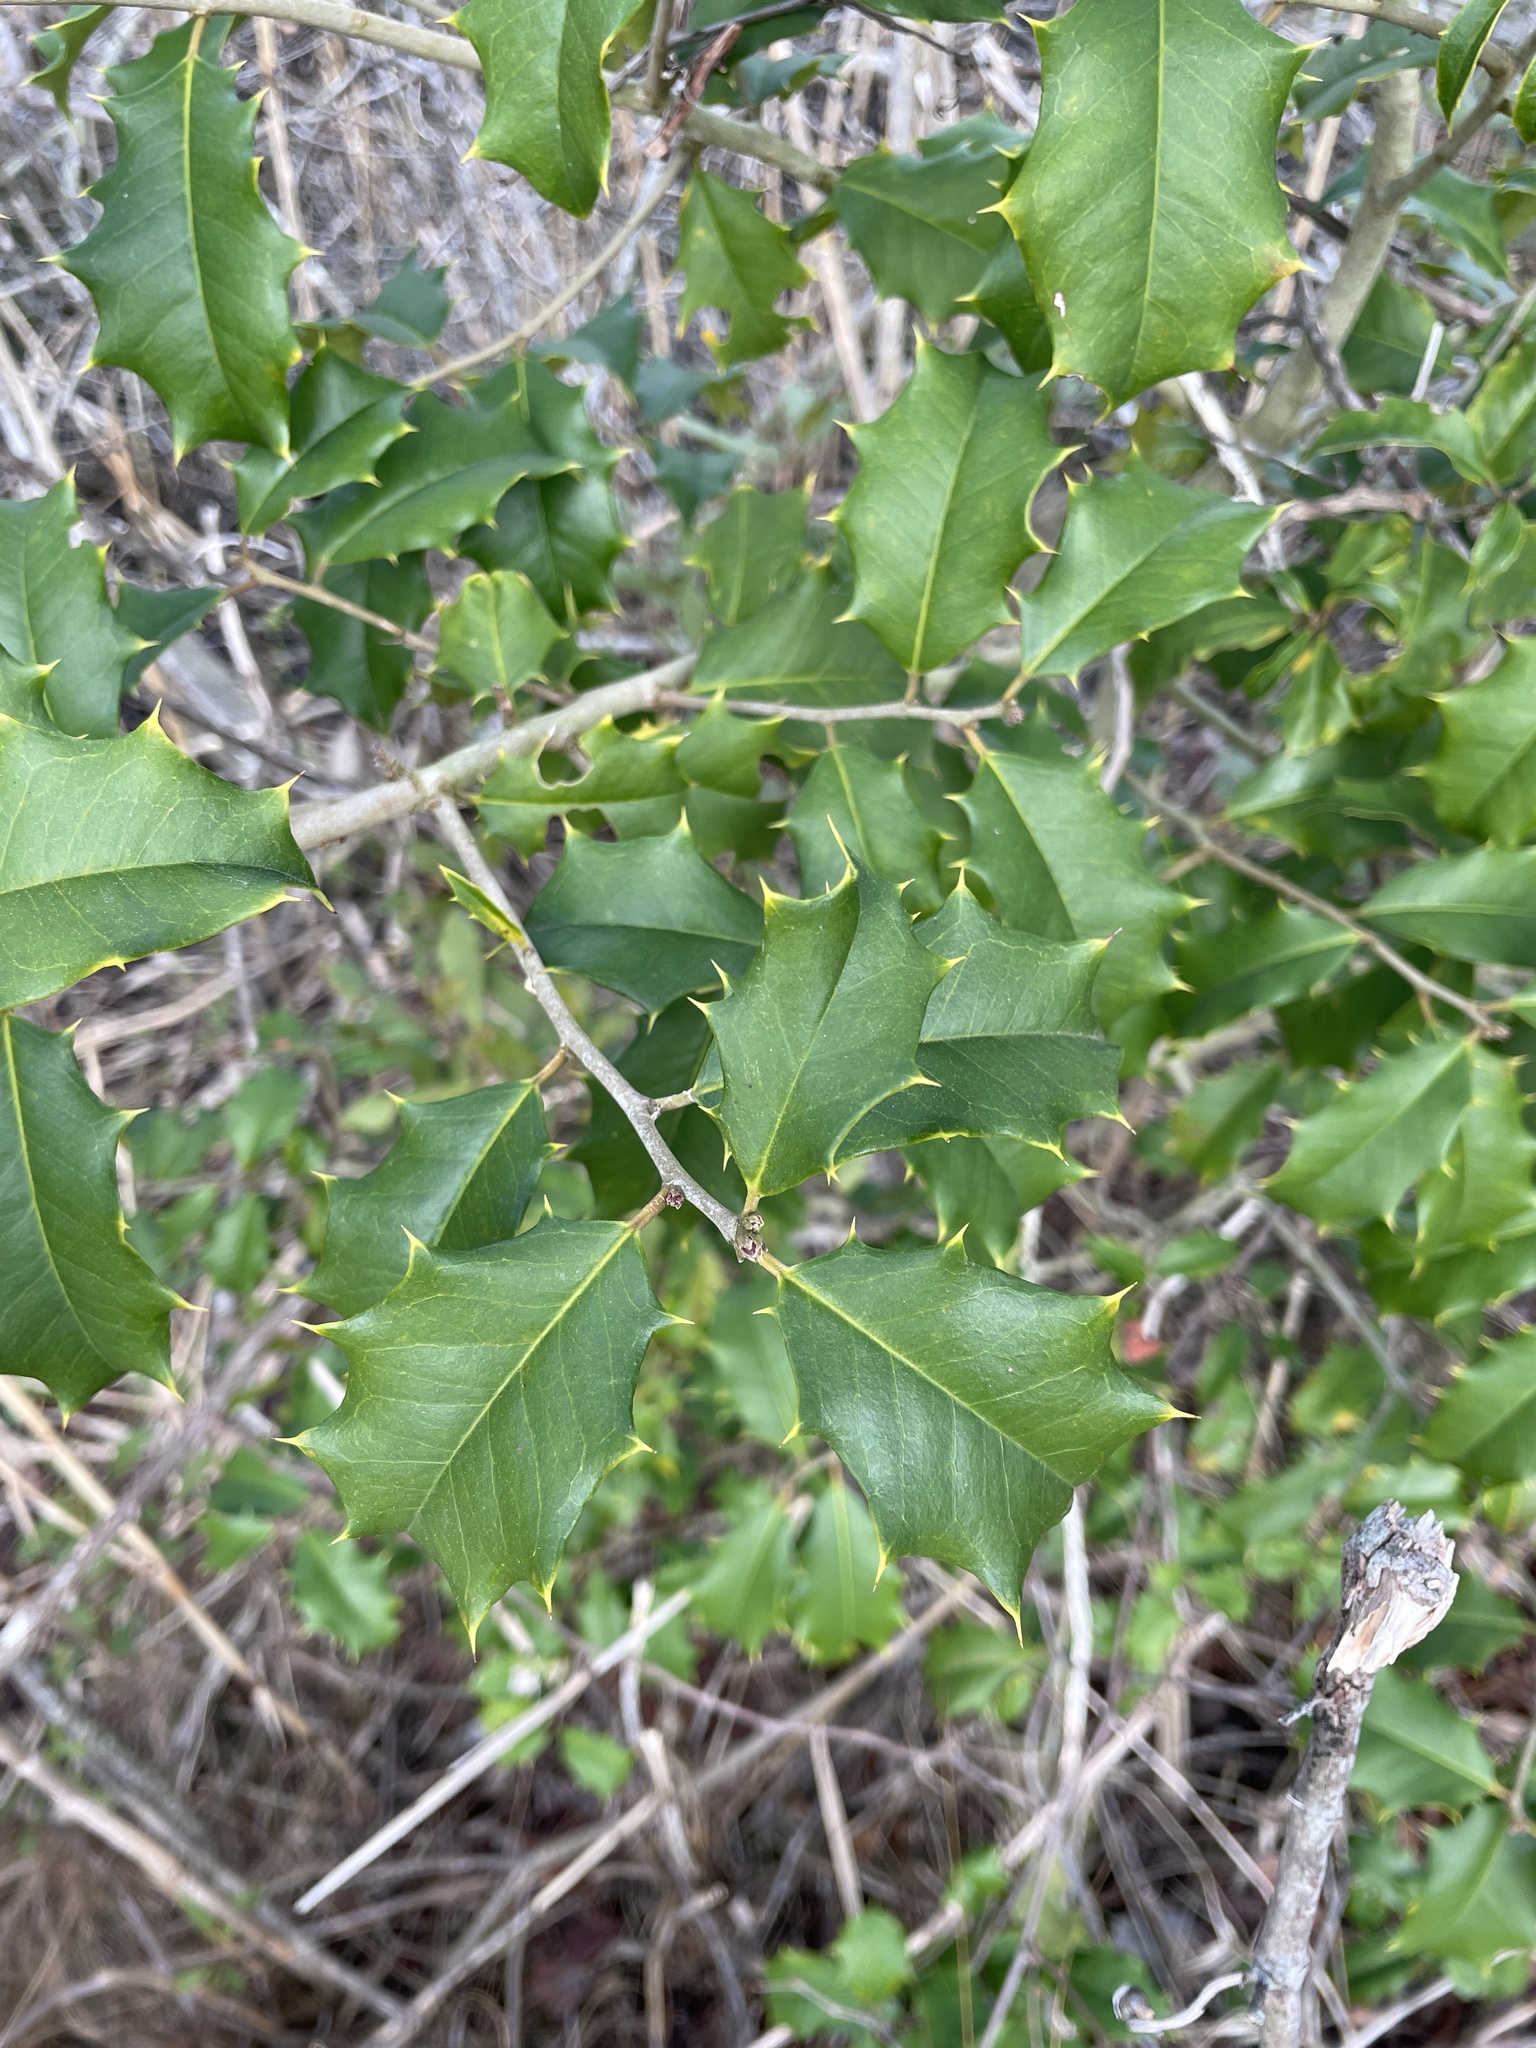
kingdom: Plantae
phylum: Tracheophyta
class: Magnoliopsida
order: Aquifoliales
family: Aquifoliaceae
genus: Ilex
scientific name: Ilex opaca
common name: American holly
